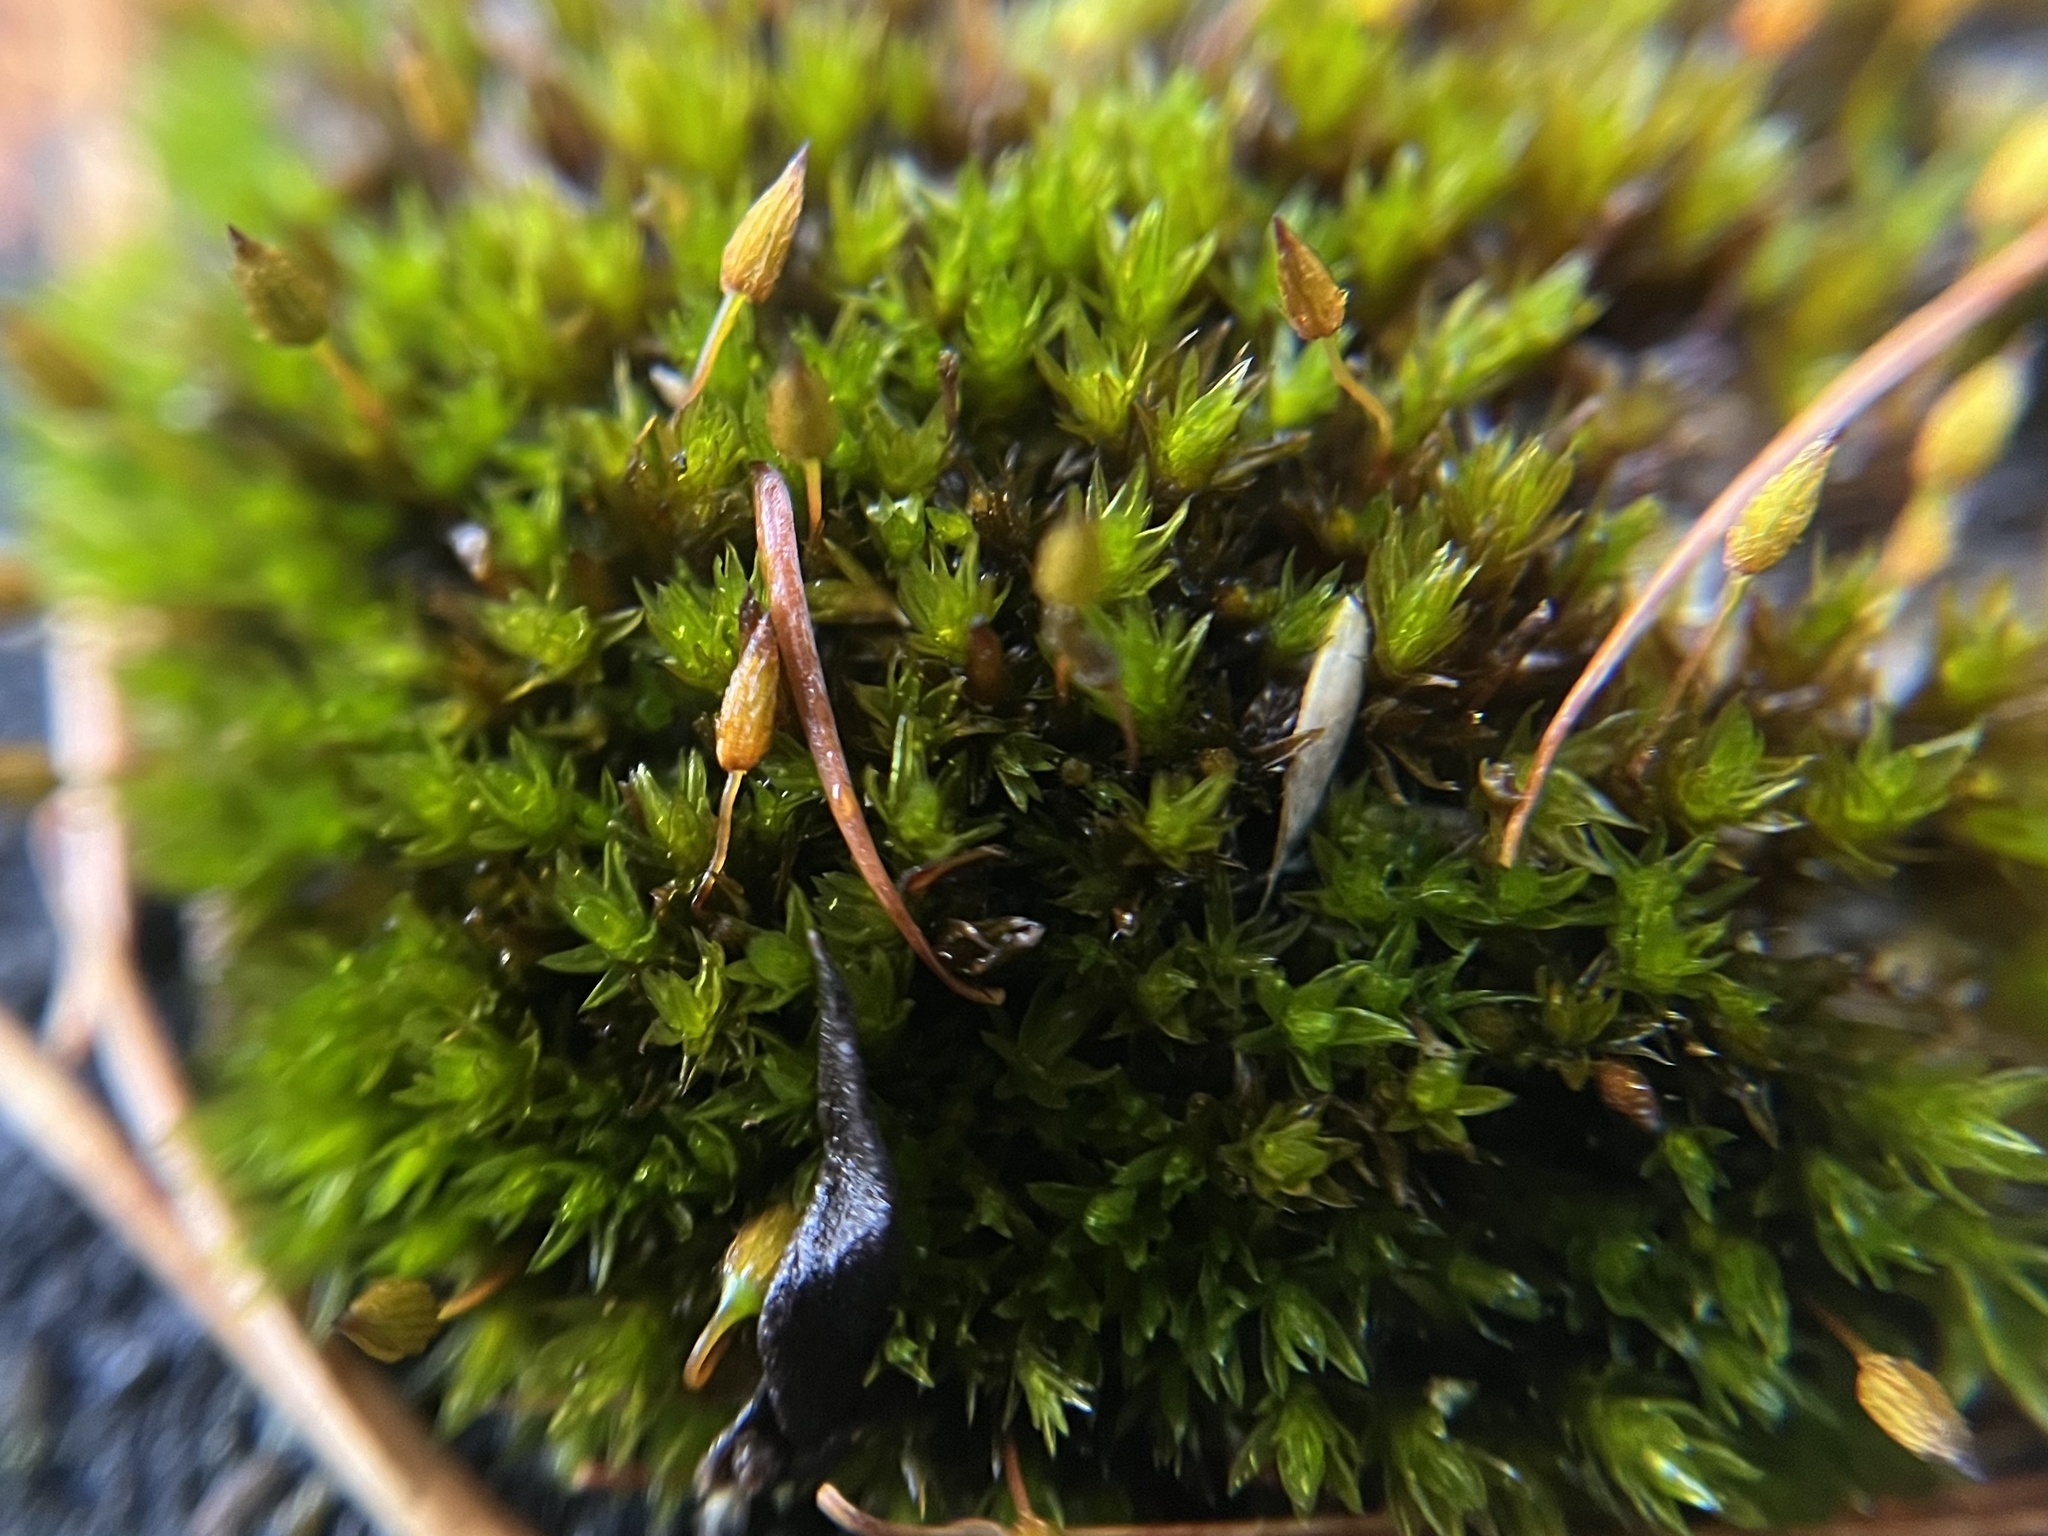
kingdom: Plantae
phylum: Bryophyta
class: Bryopsida
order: Orthotrichales
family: Orthotrichaceae
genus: Orthotrichum
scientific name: Orthotrichum anomalum
